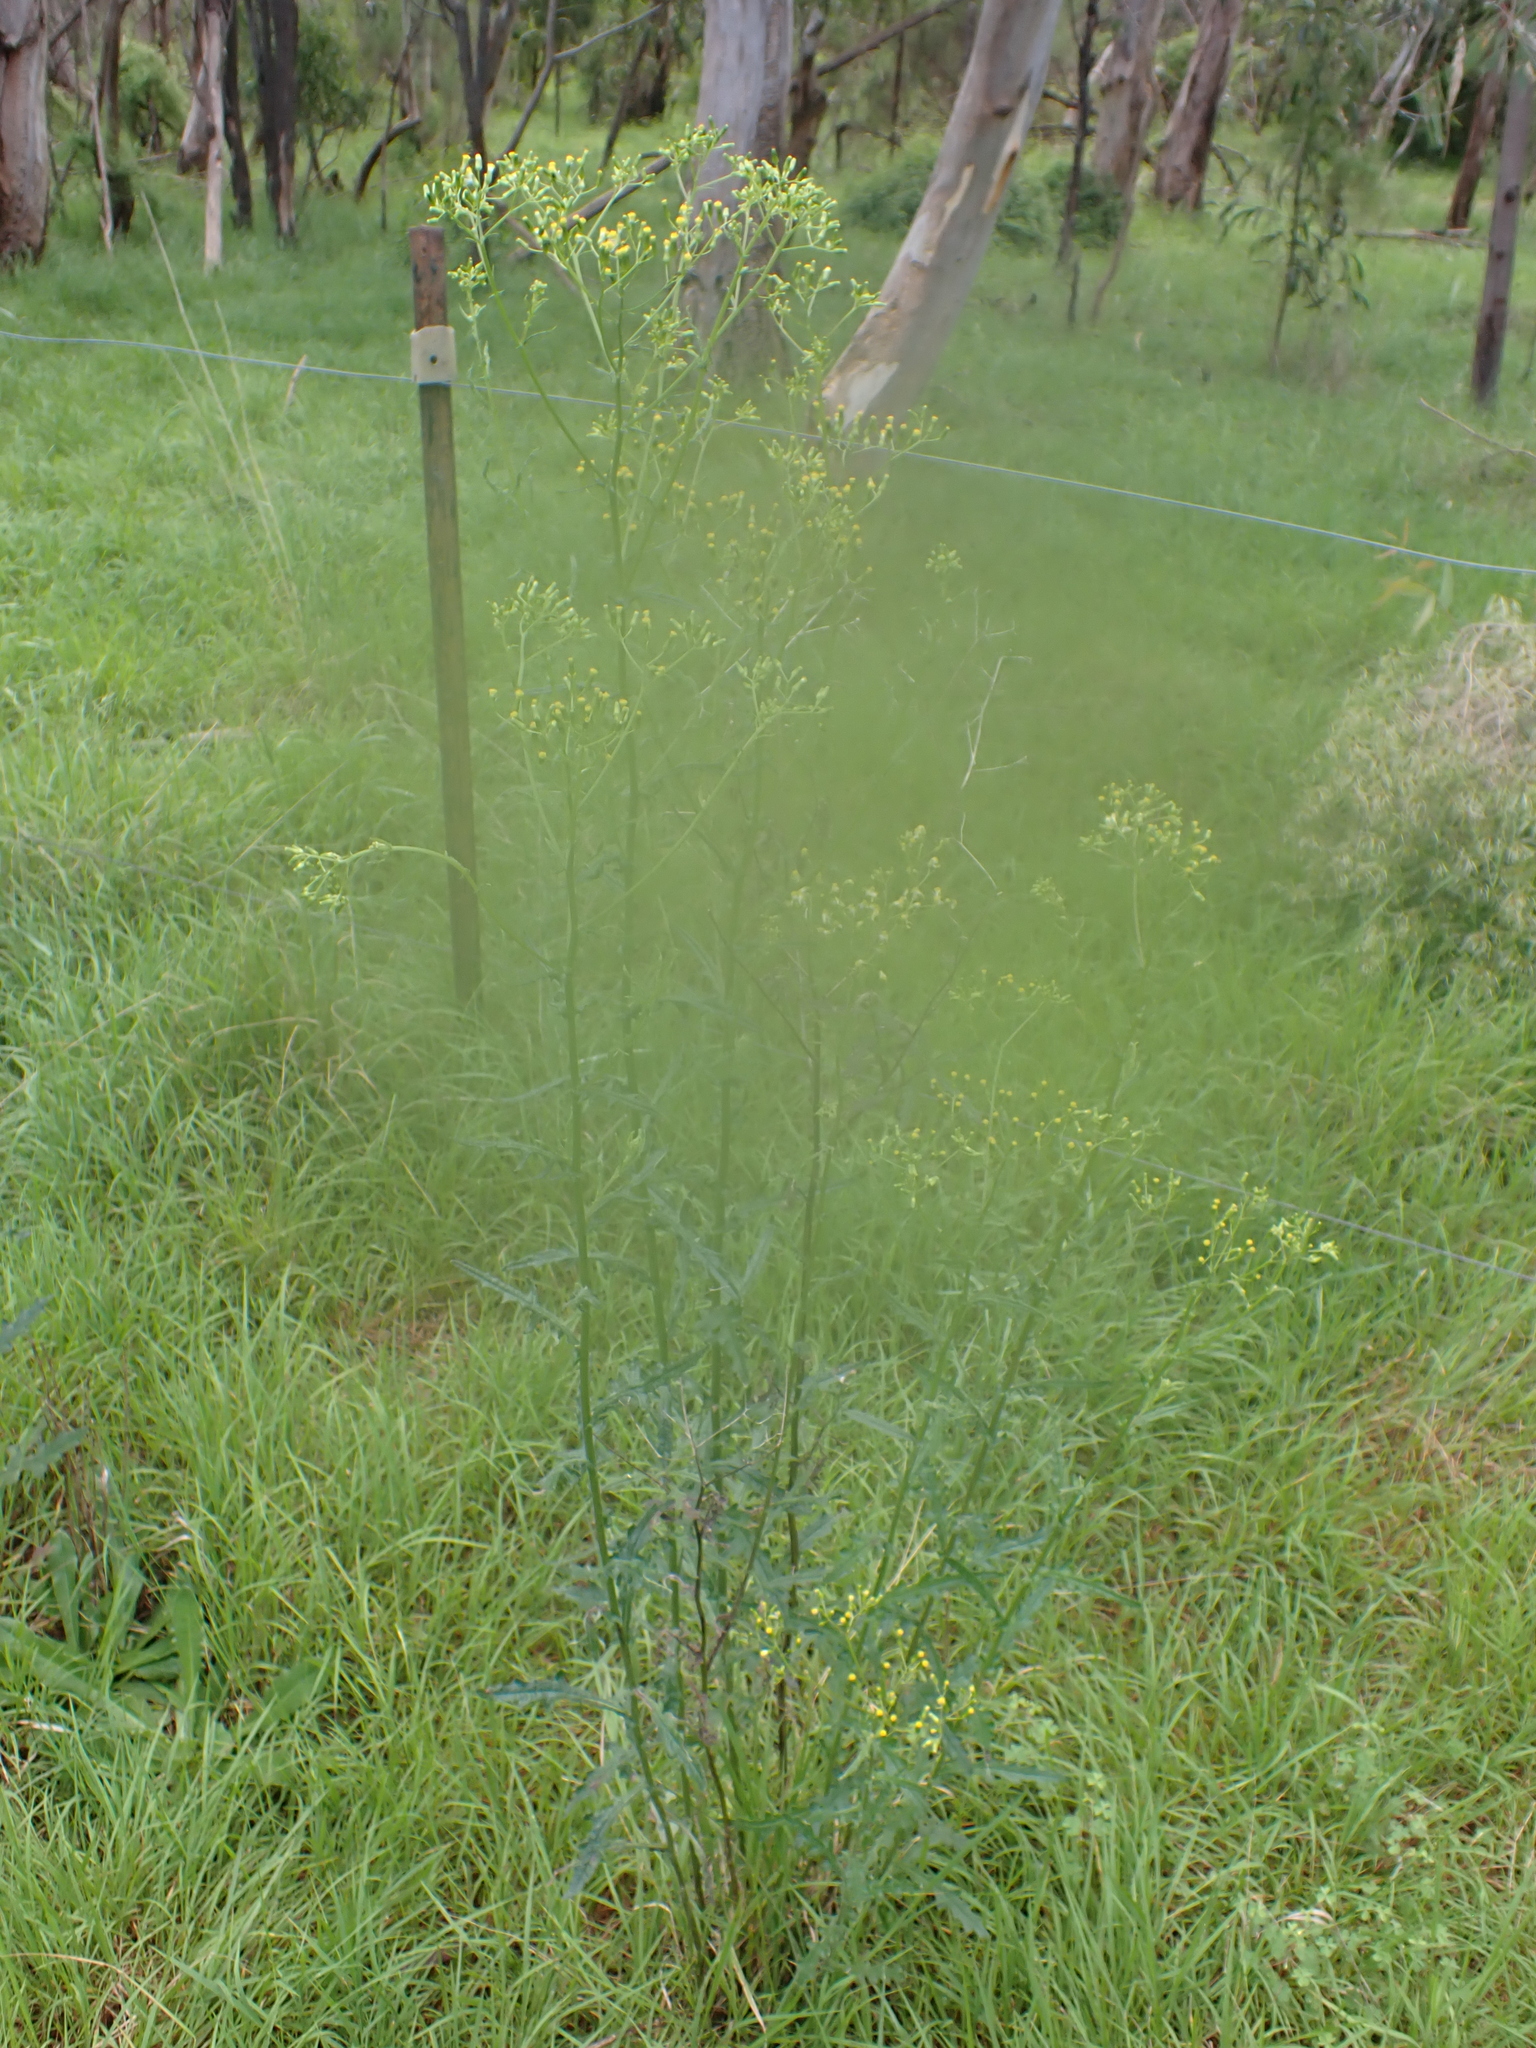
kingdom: Plantae
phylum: Tracheophyta
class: Magnoliopsida
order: Asterales
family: Asteraceae
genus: Senecio
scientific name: Senecio hispidulus
